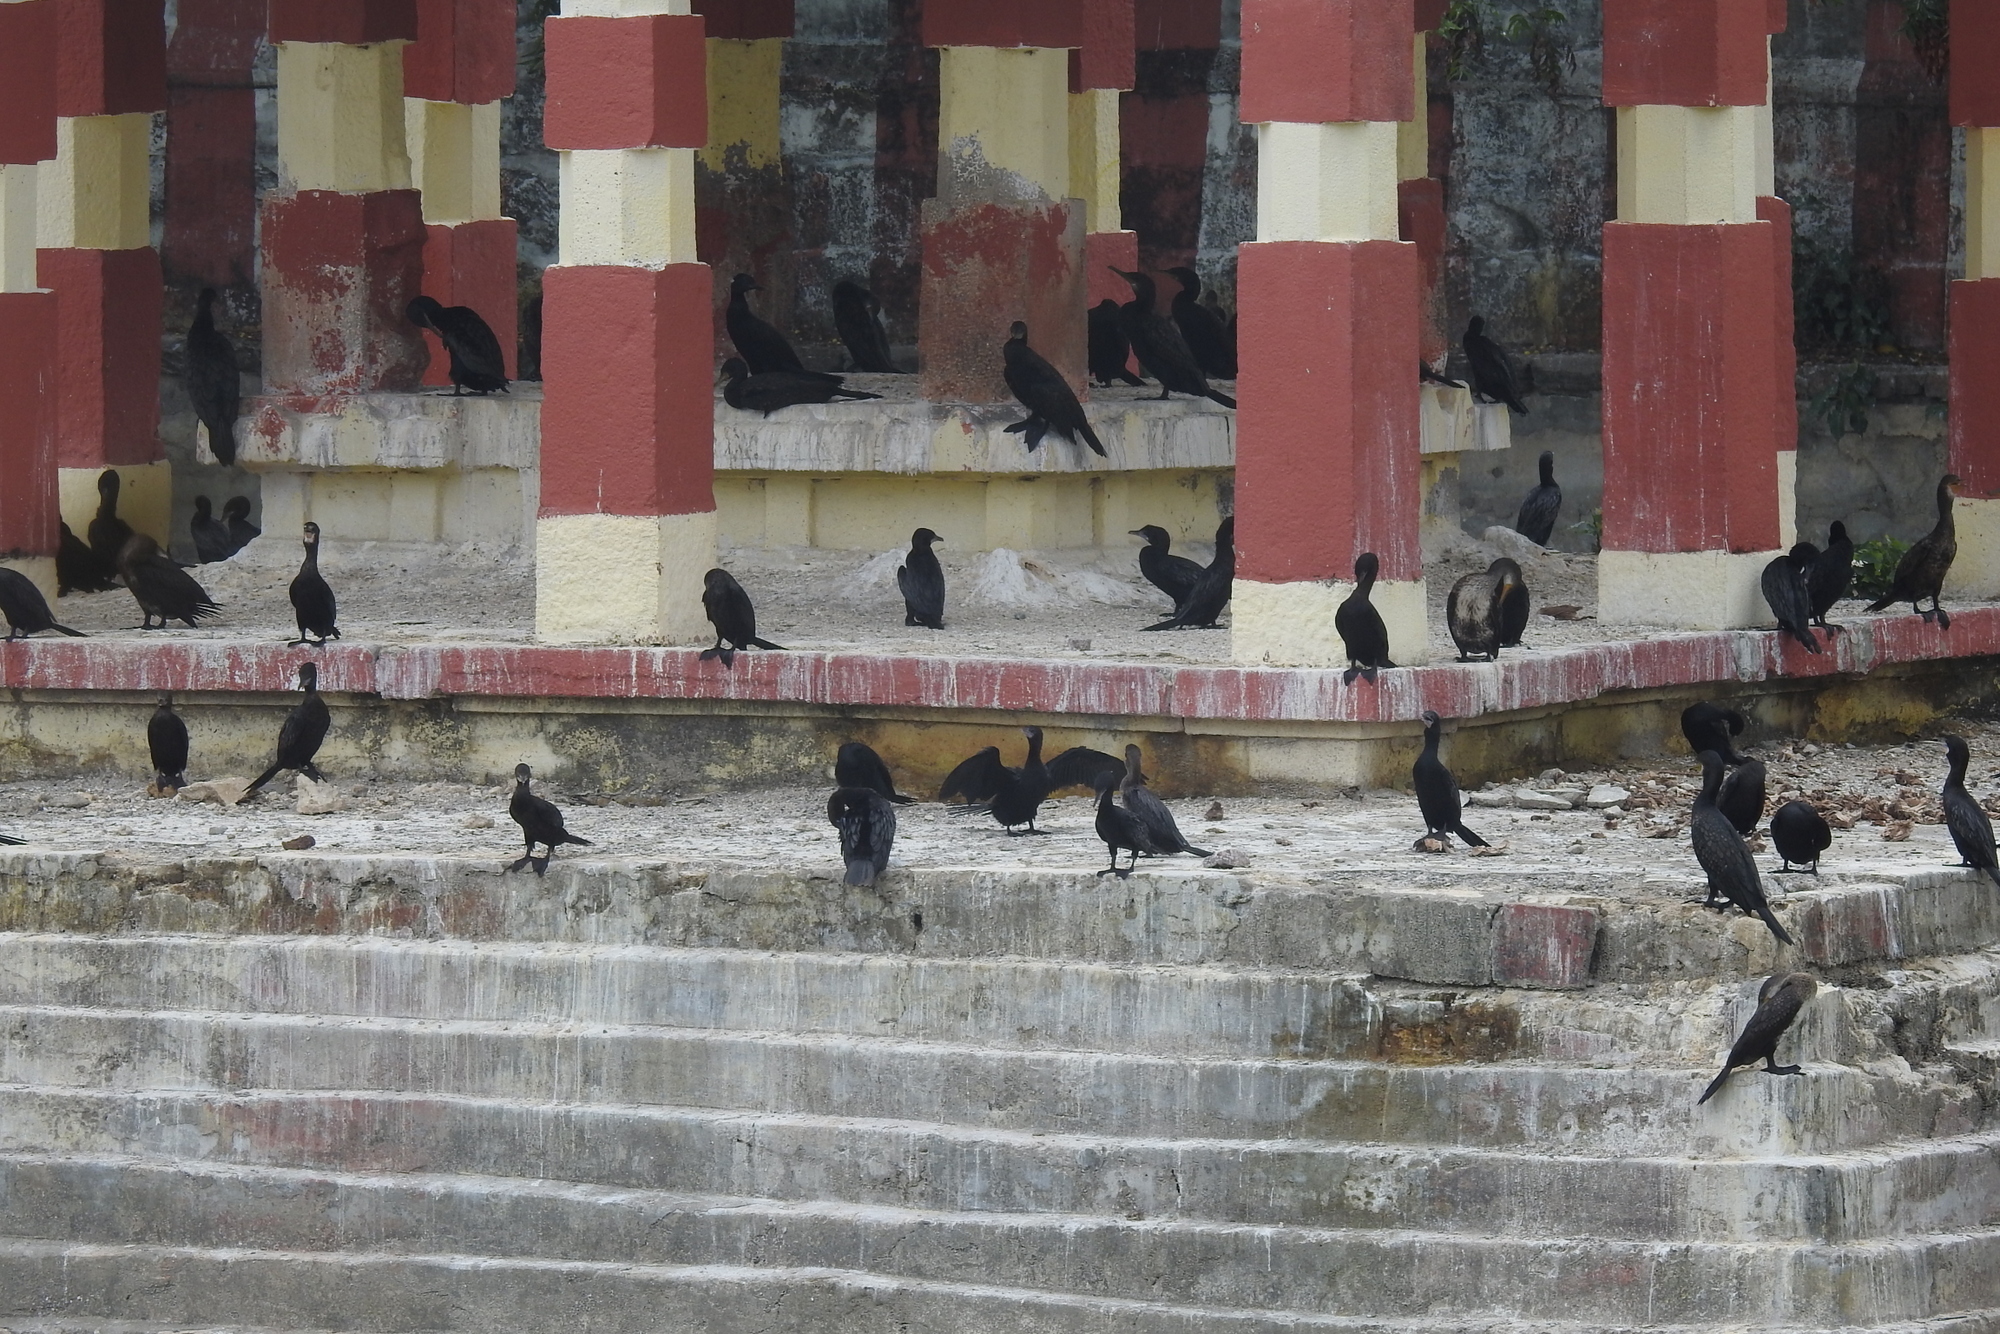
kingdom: Animalia
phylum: Chordata
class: Aves
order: Suliformes
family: Phalacrocoracidae
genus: Microcarbo
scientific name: Microcarbo niger
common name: Little cormorant
